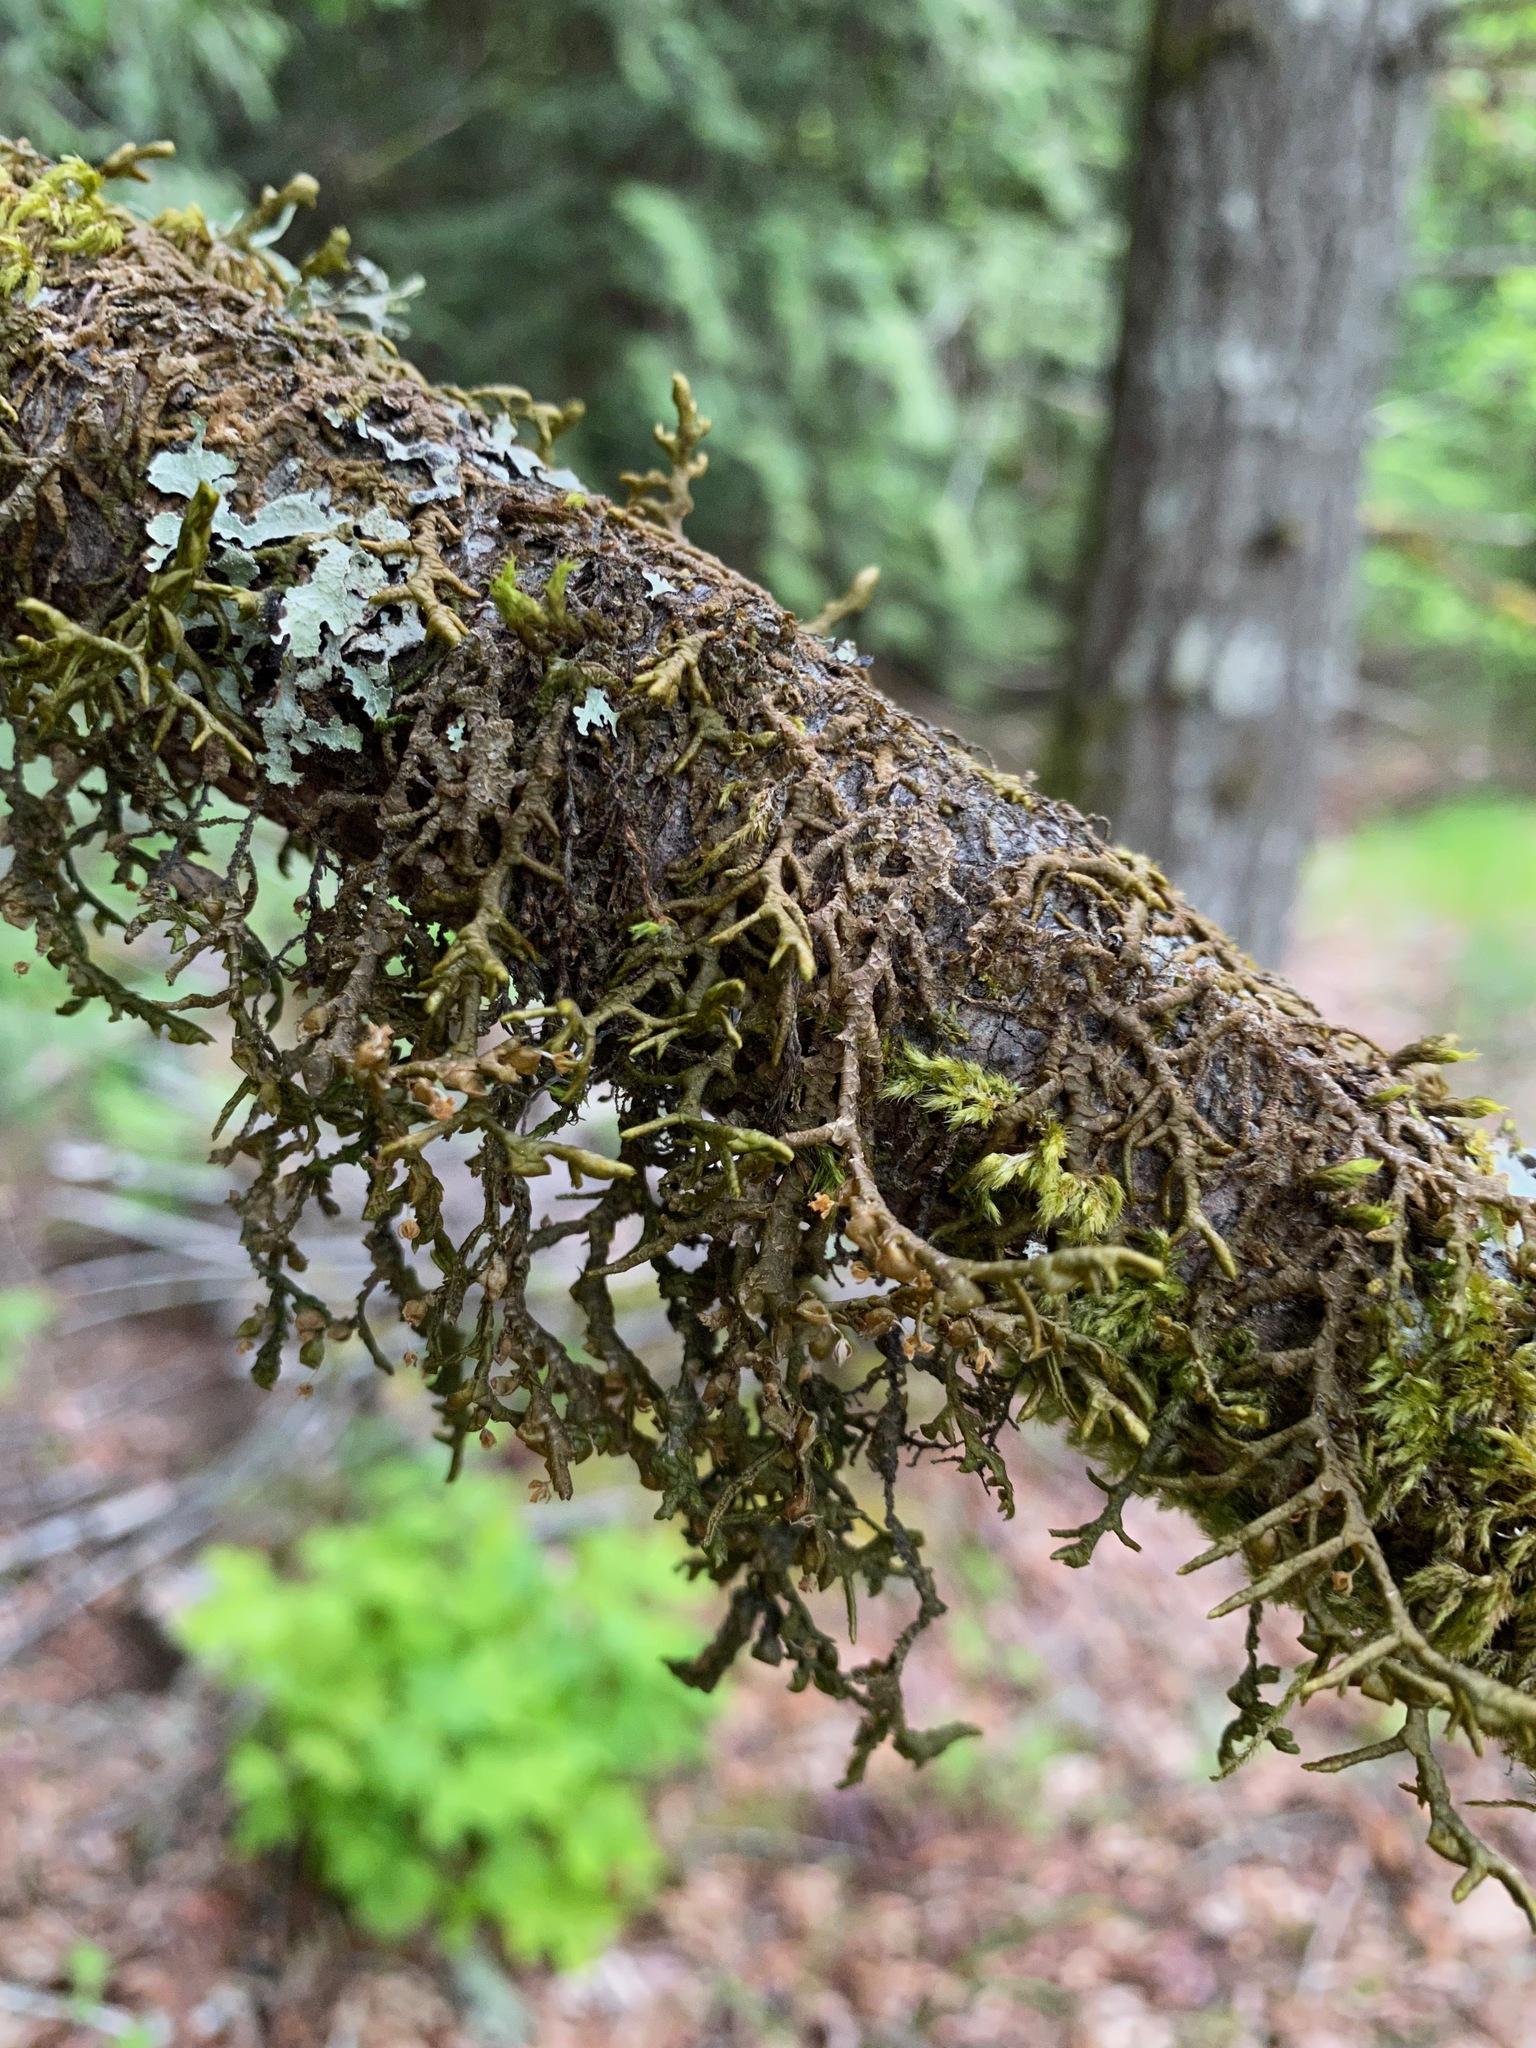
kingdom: Plantae
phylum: Marchantiophyta
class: Jungermanniopsida
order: Porellales
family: Porellaceae
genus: Porella
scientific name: Porella navicularis
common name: Tree ruffle liverwort
